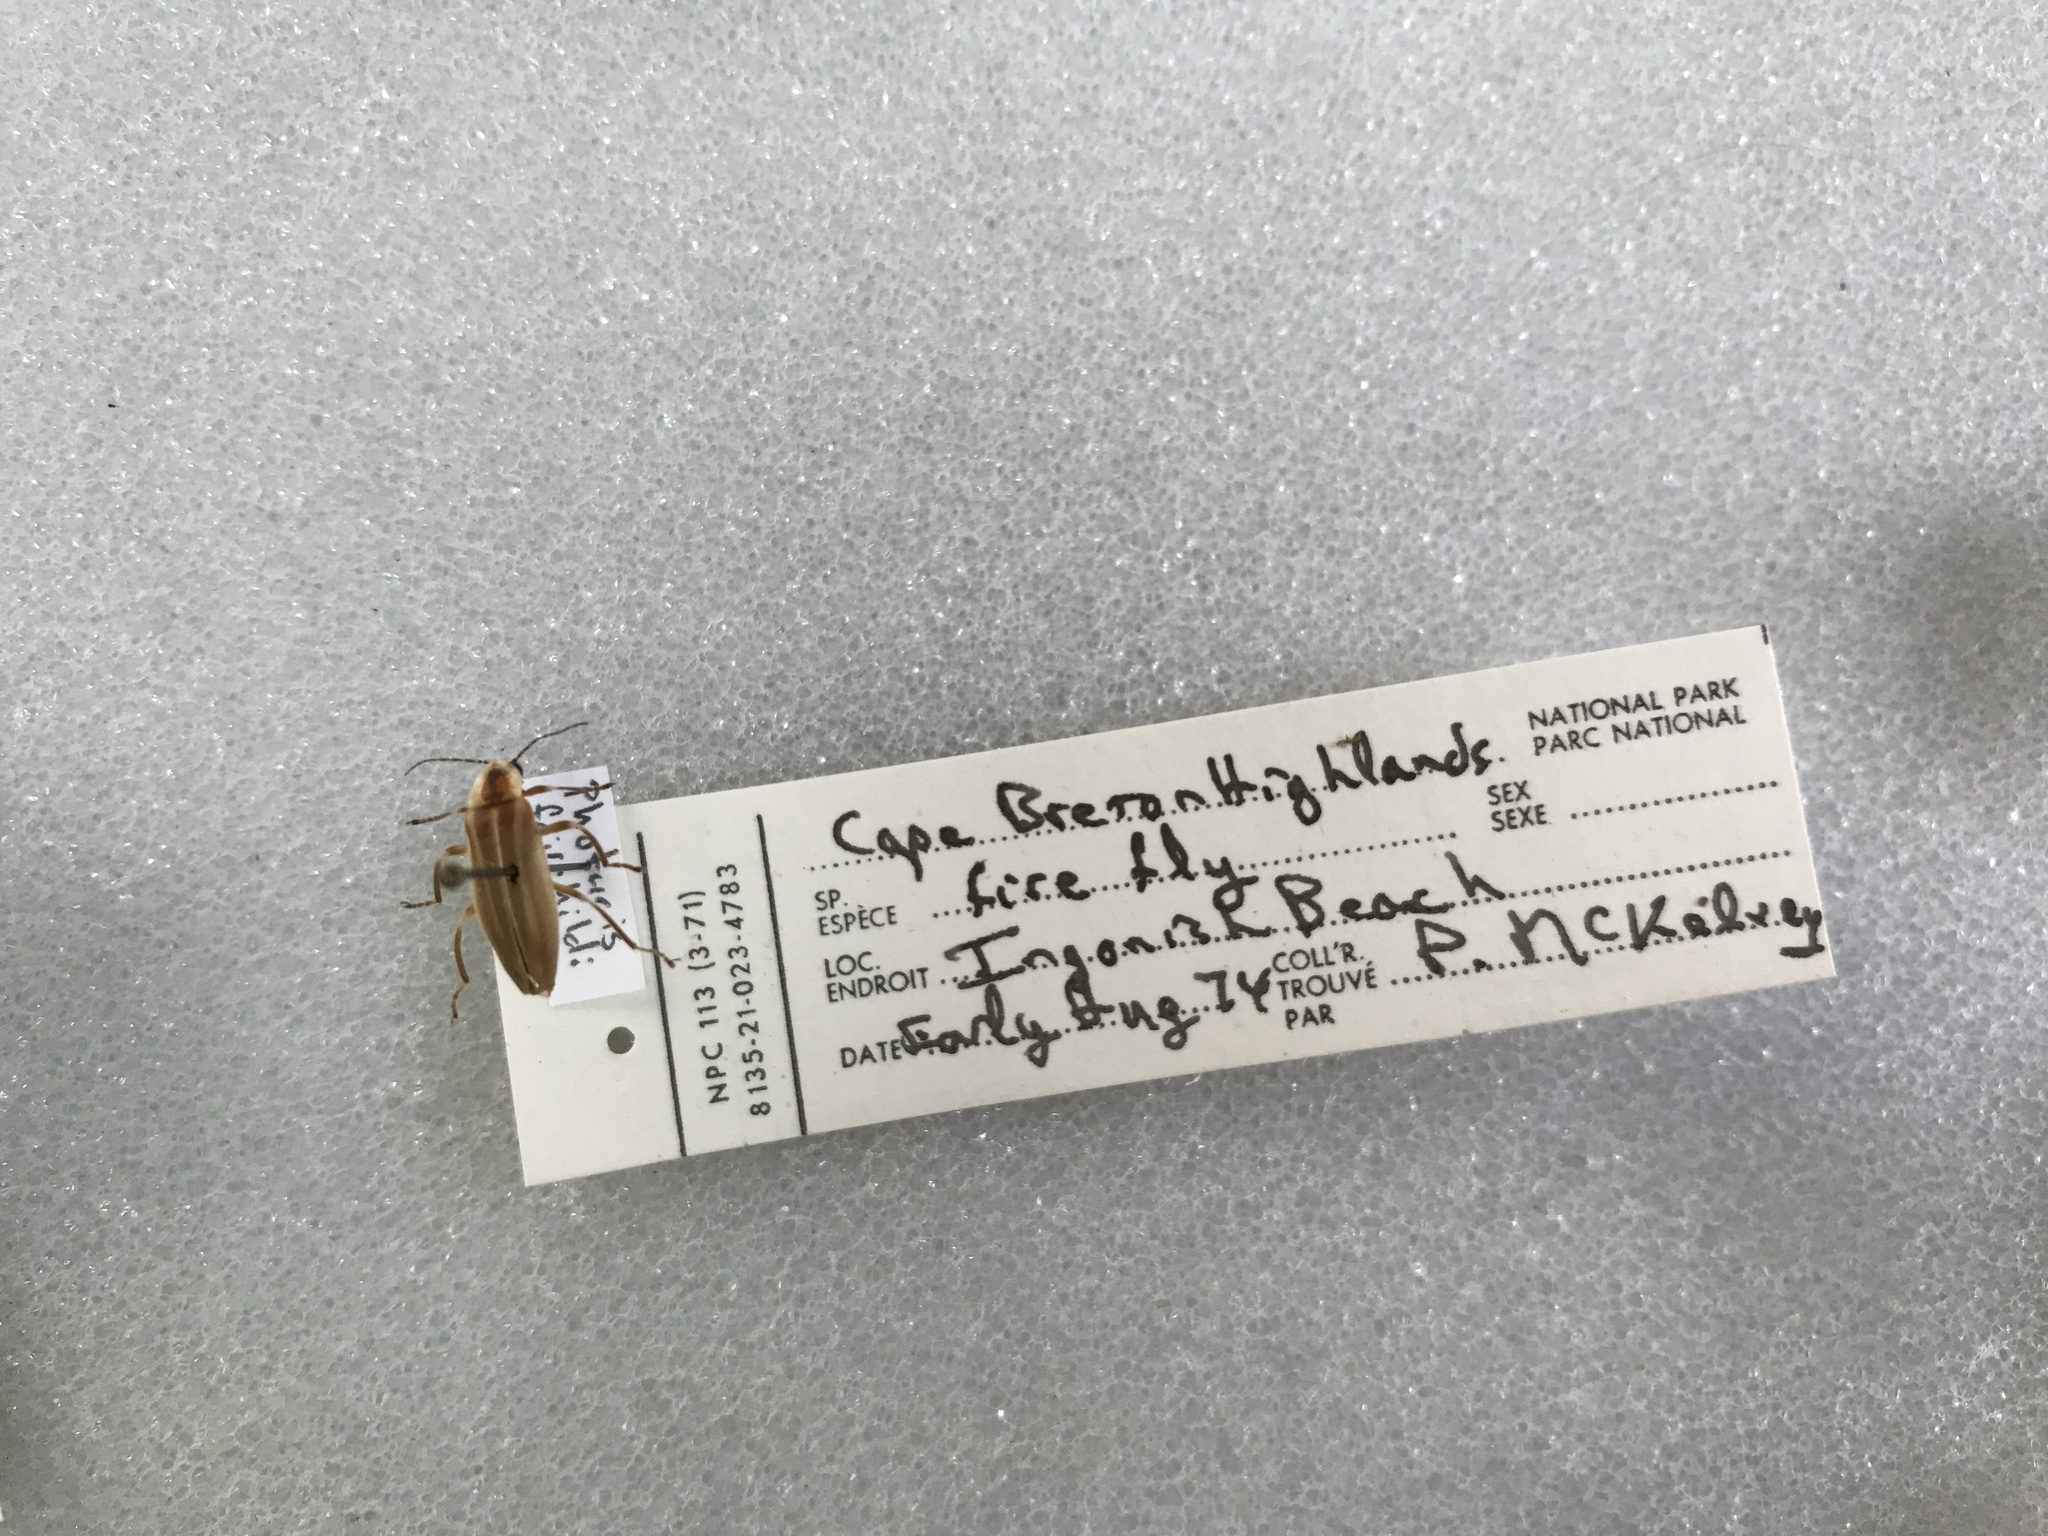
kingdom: Animalia
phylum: Arthropoda
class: Insecta
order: Coleoptera
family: Lampyridae
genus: Photuris
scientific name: Photuris fairchildi
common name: Cape breton firefly
